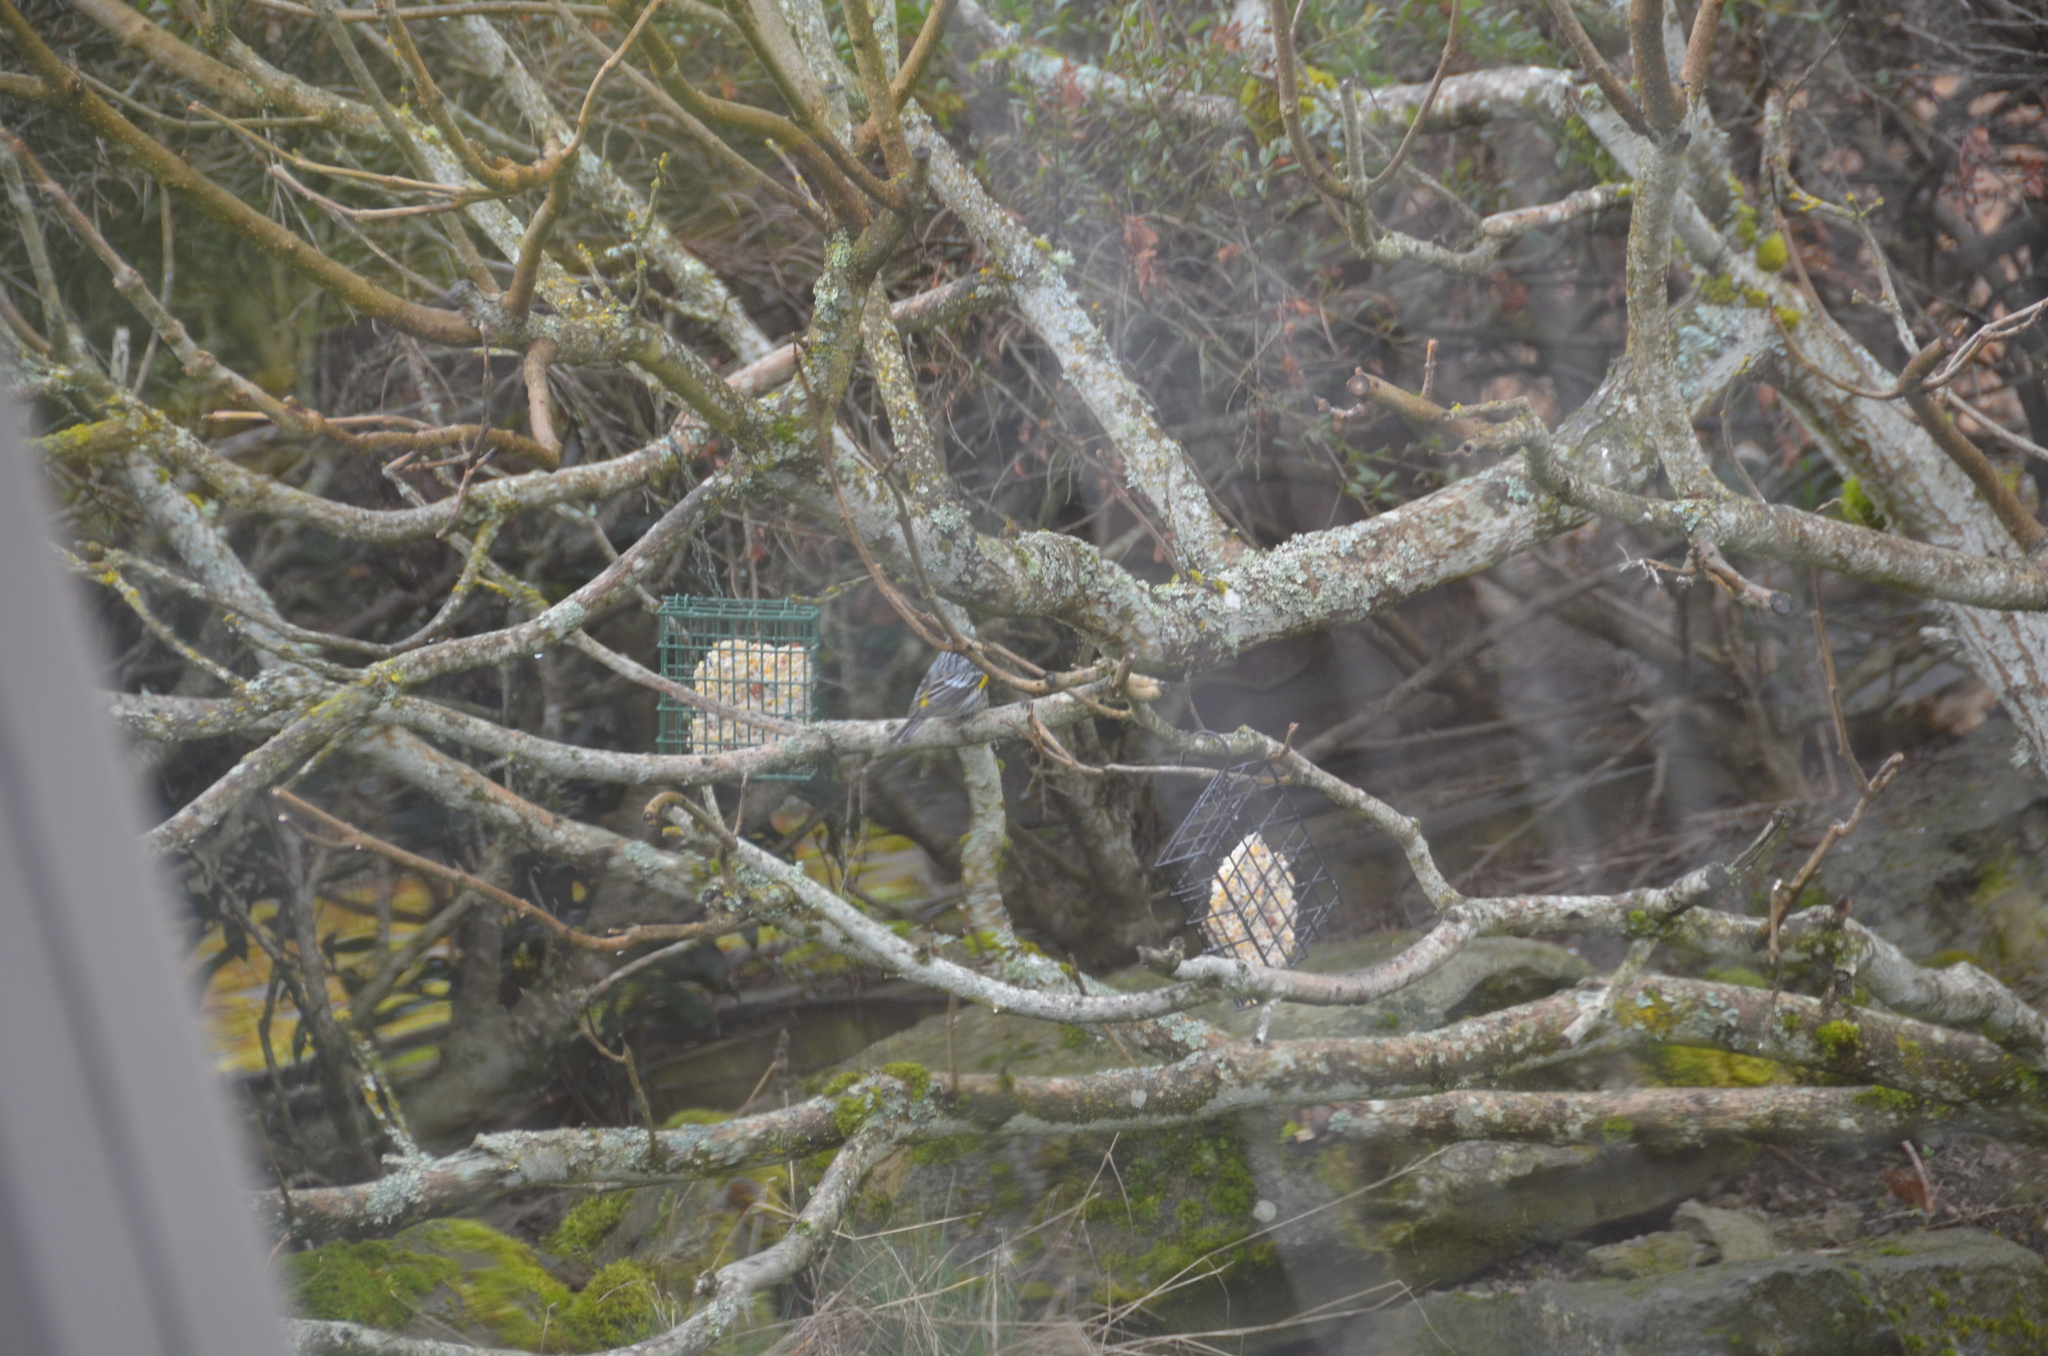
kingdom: Animalia
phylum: Chordata
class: Aves
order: Passeriformes
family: Parulidae
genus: Setophaga
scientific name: Setophaga coronata
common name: Myrtle warbler
